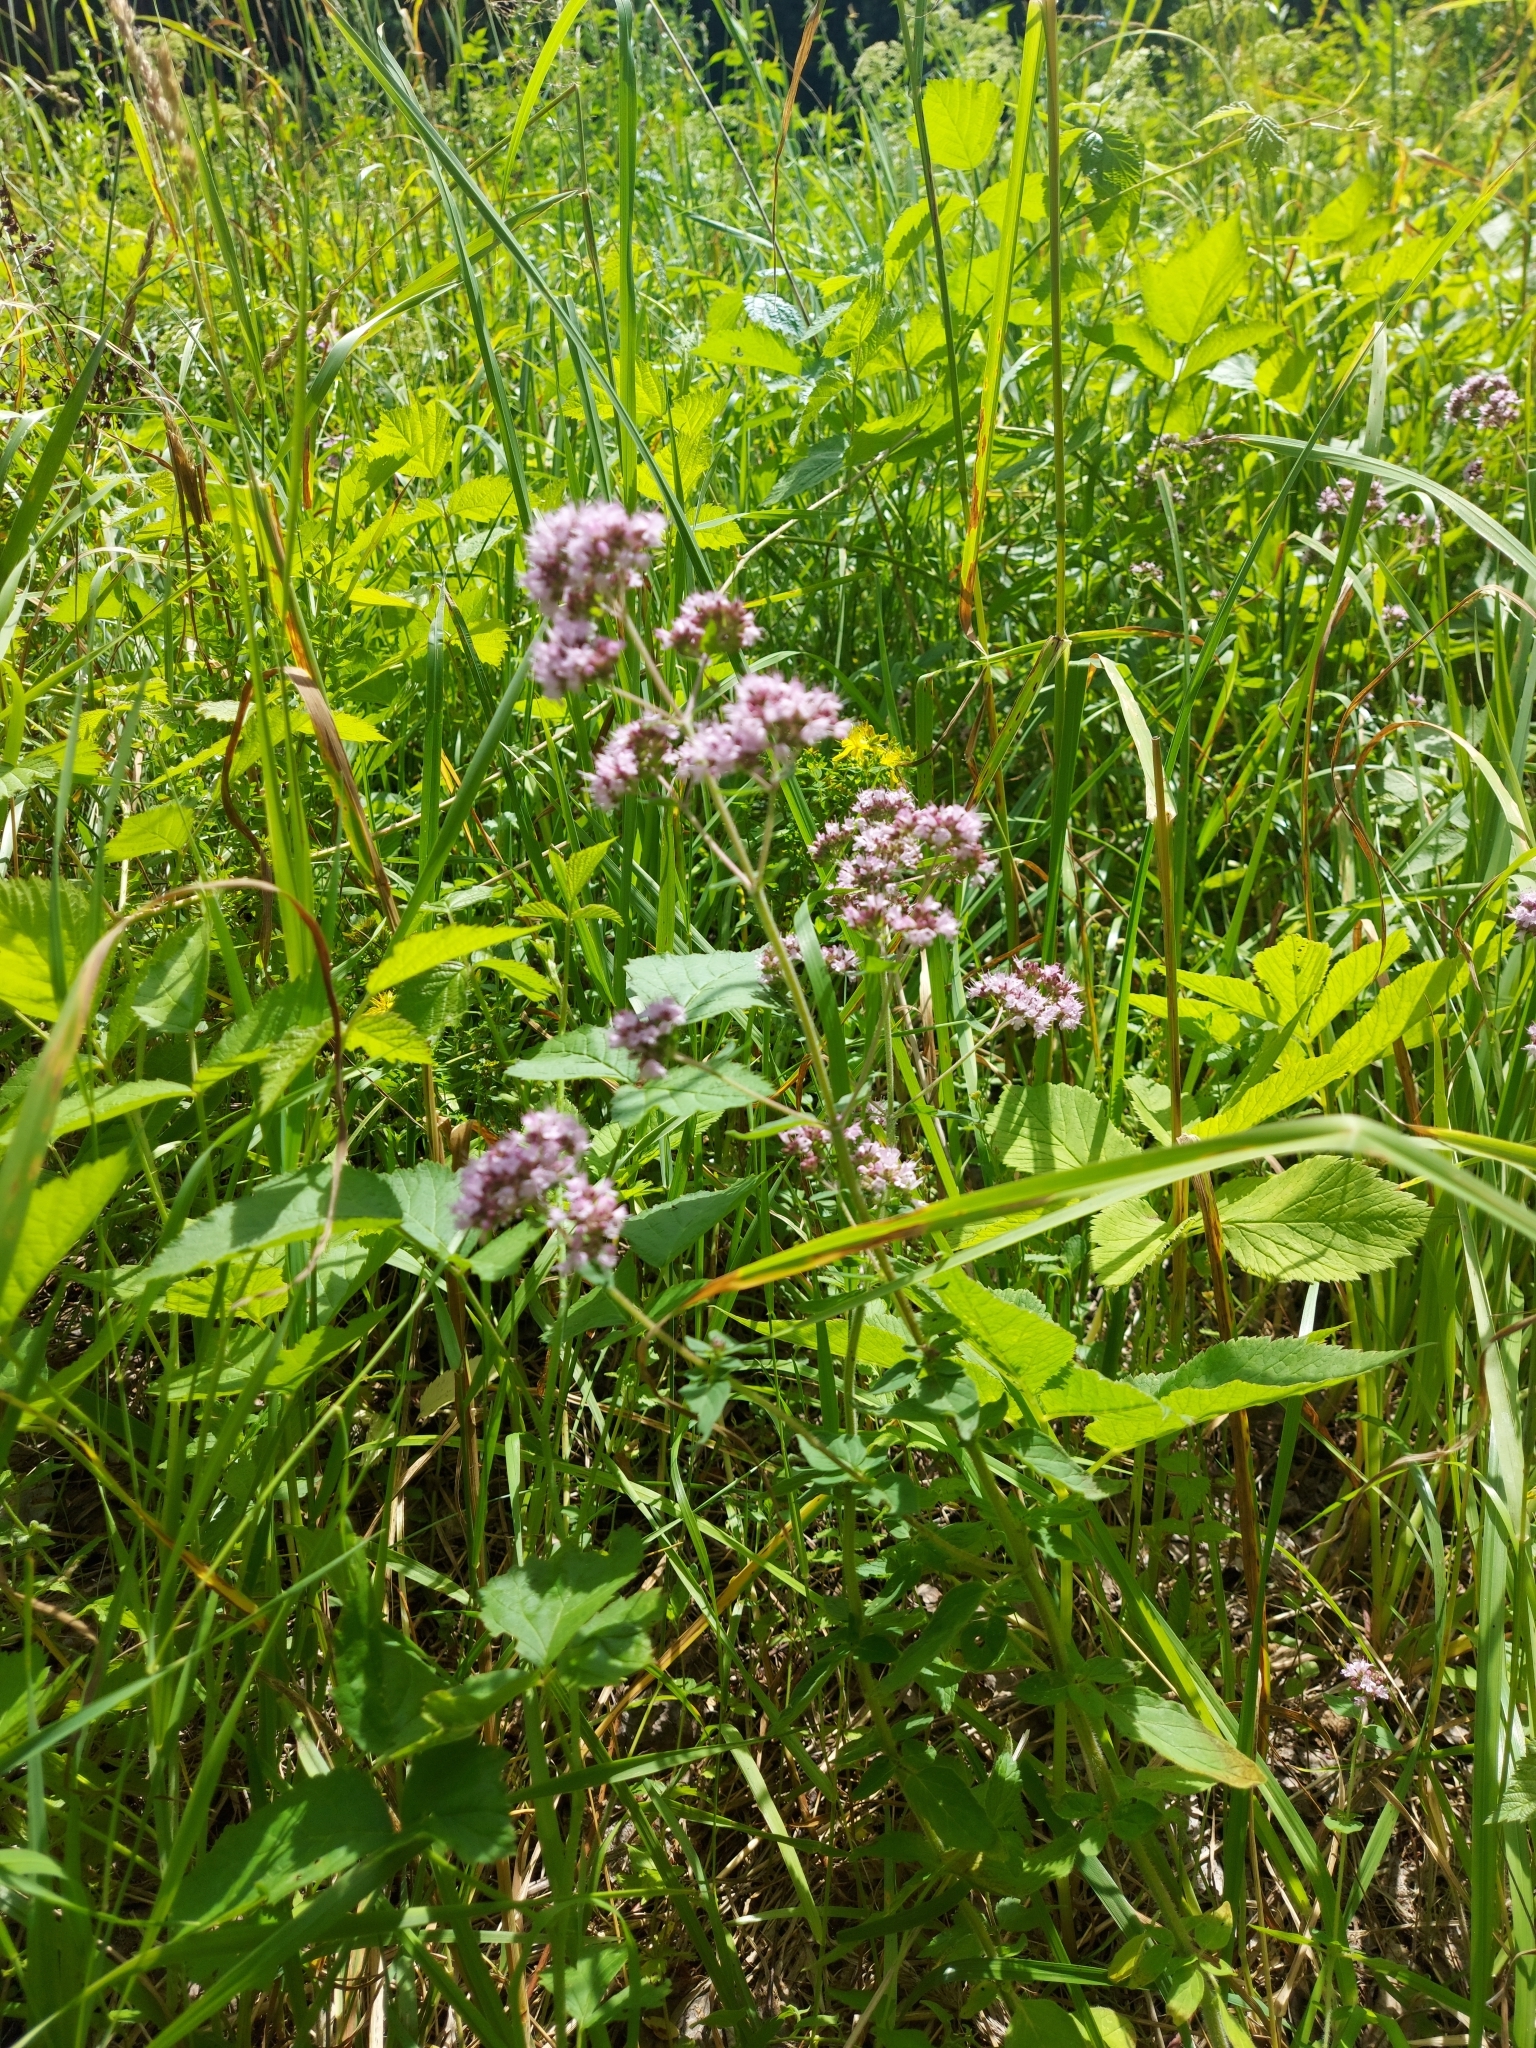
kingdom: Plantae
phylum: Tracheophyta
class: Magnoliopsida
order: Lamiales
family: Lamiaceae
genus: Origanum
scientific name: Origanum vulgare
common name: Wild marjoram
